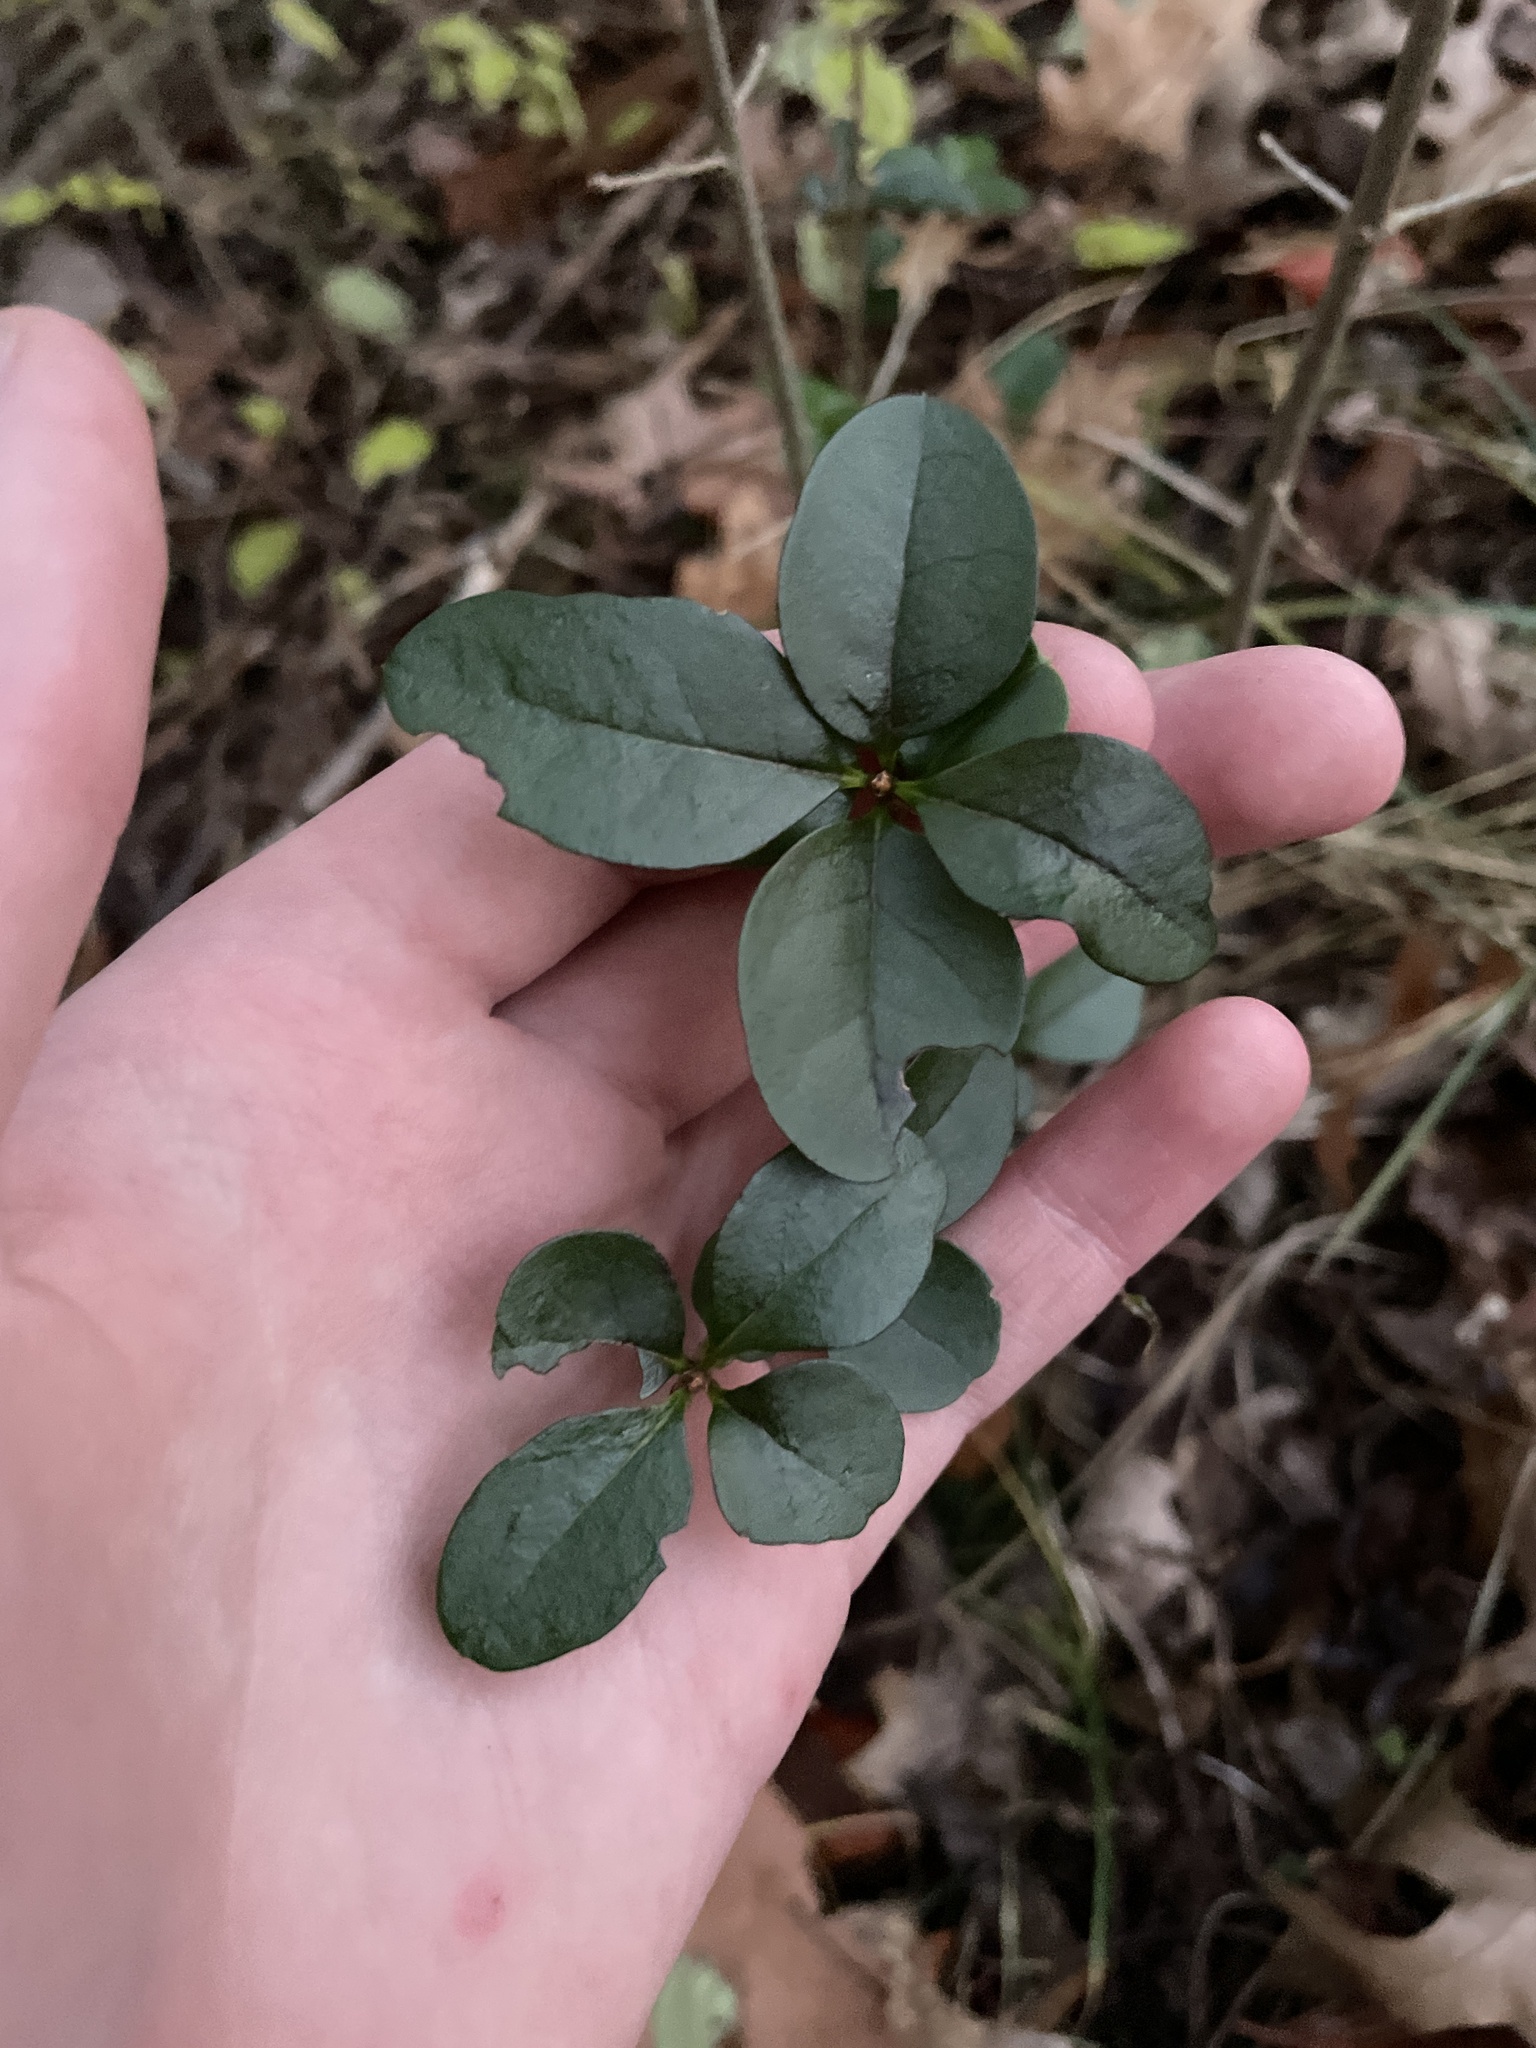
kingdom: Plantae
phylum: Tracheophyta
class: Magnoliopsida
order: Lamiales
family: Oleaceae
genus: Ligustrum
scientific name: Ligustrum sinense
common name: Chinese privet
